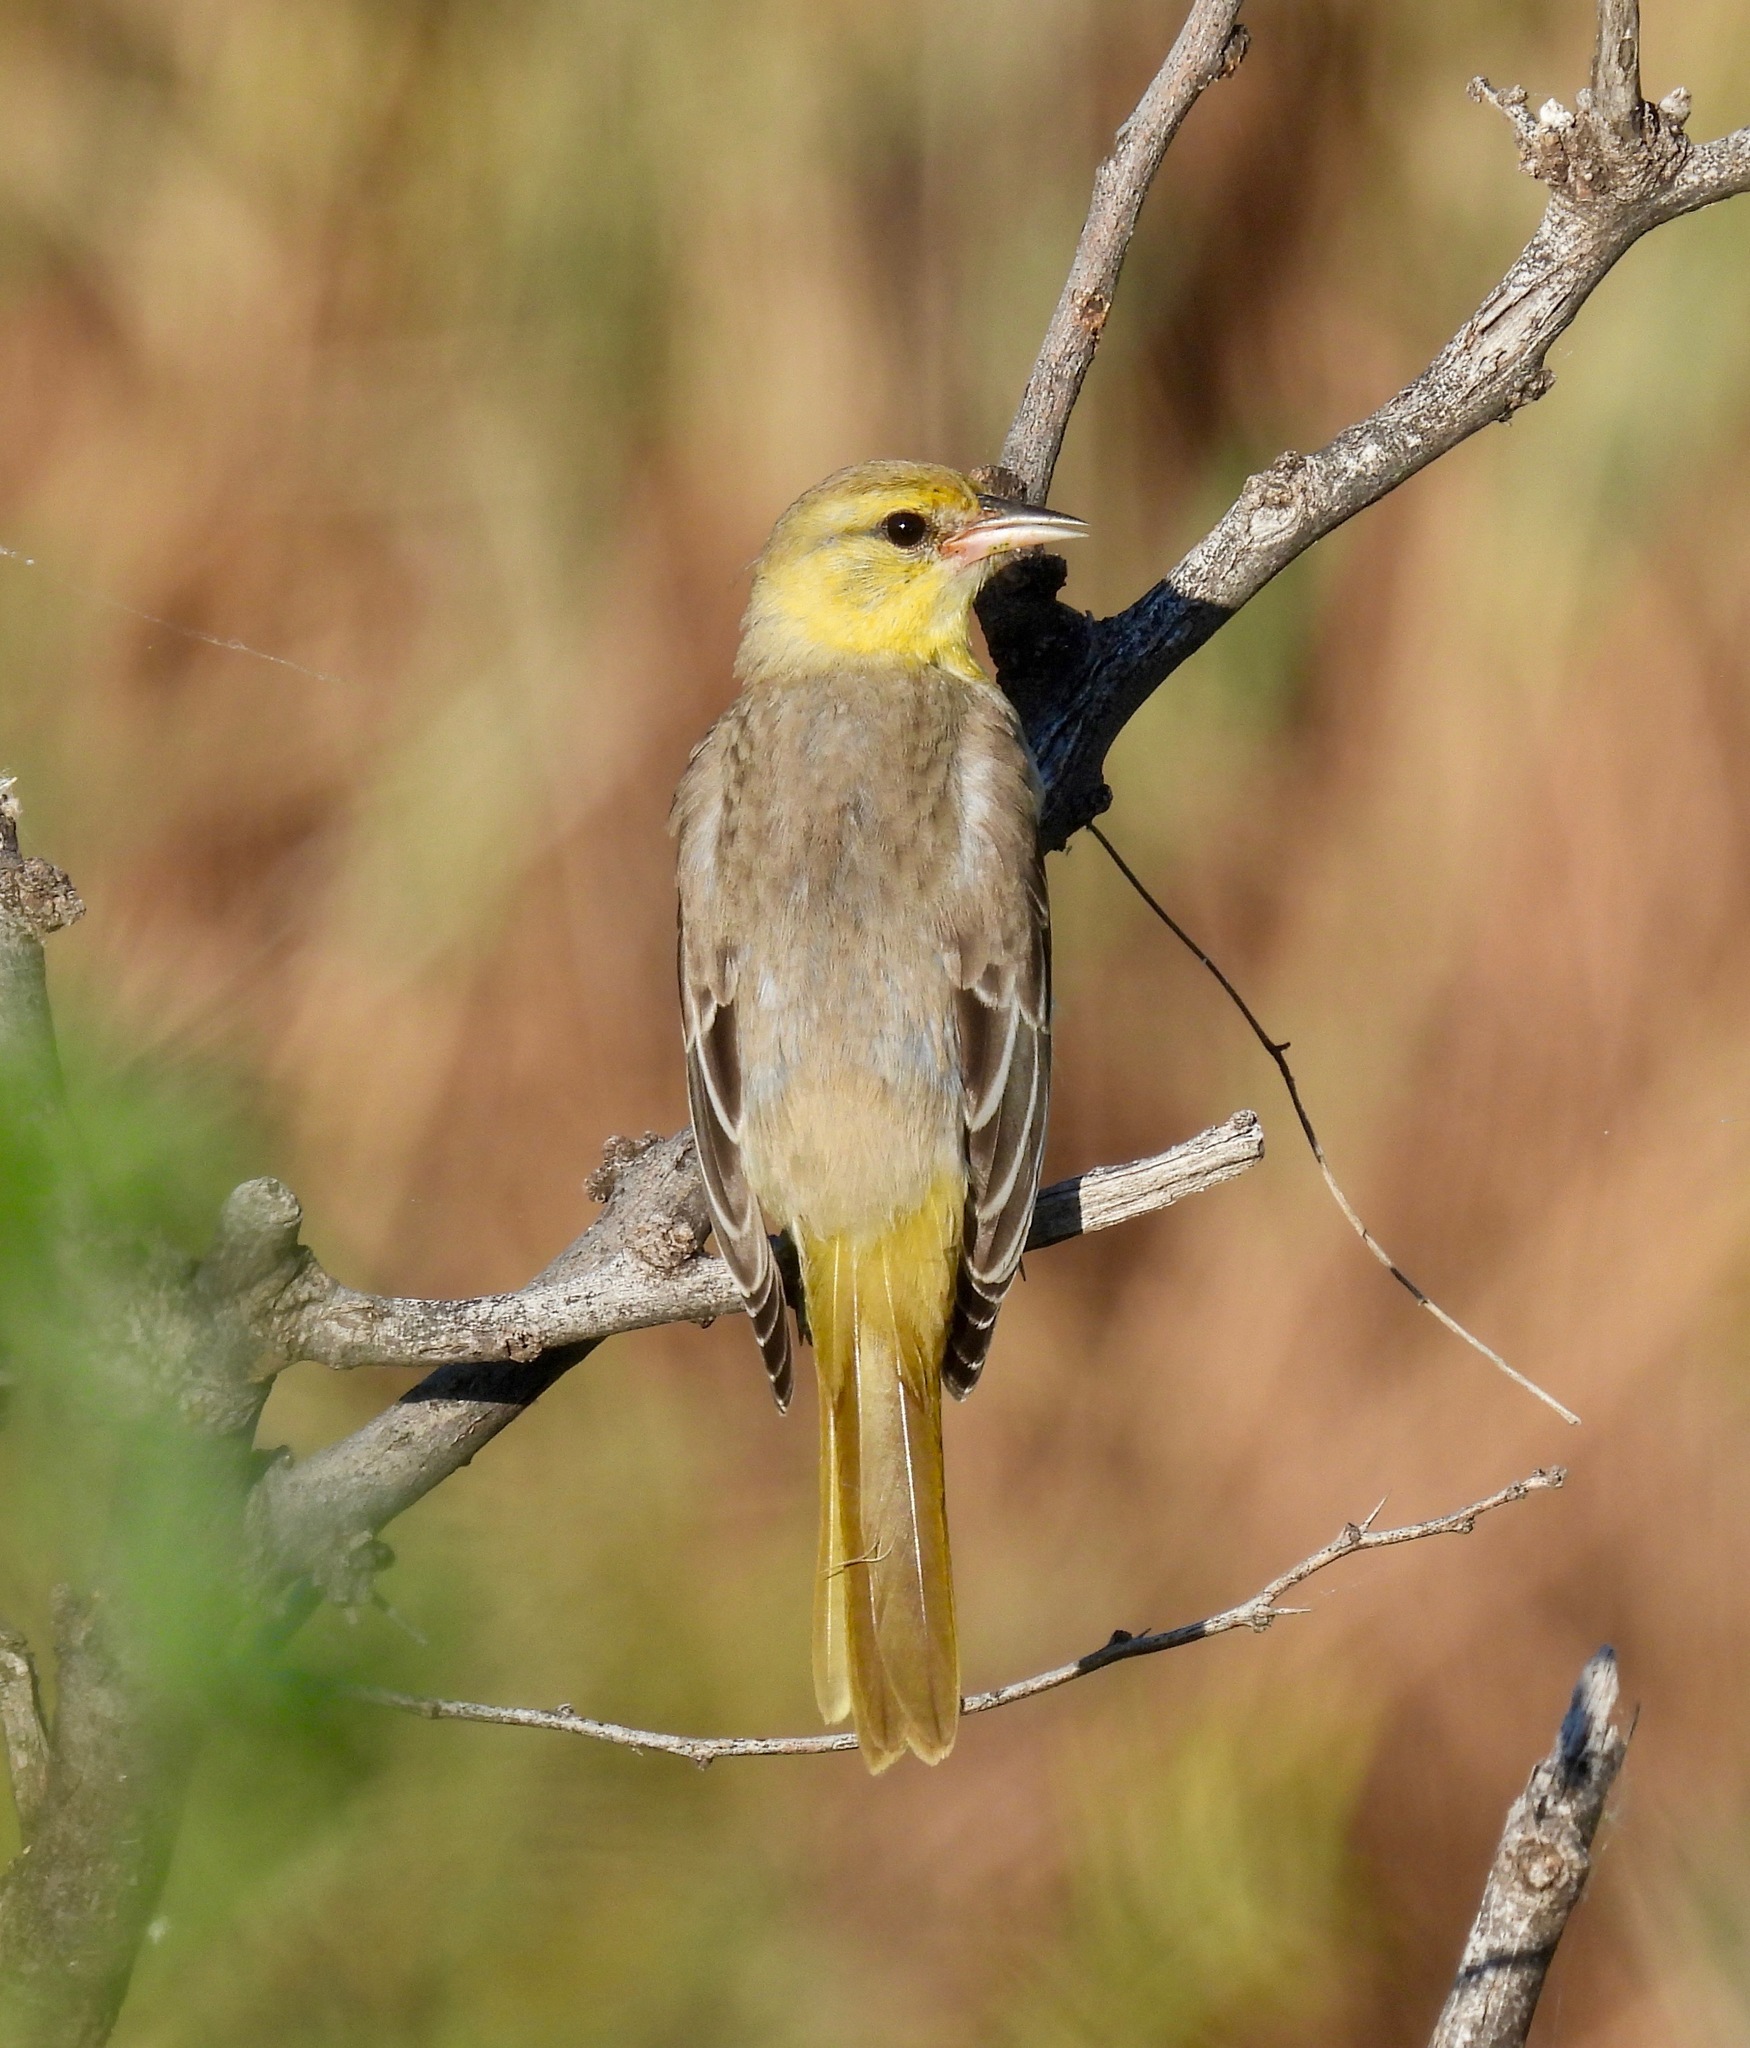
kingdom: Animalia
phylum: Chordata
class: Aves
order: Passeriformes
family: Icteridae
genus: Icterus
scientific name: Icterus bullockii
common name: Bullock's oriole
